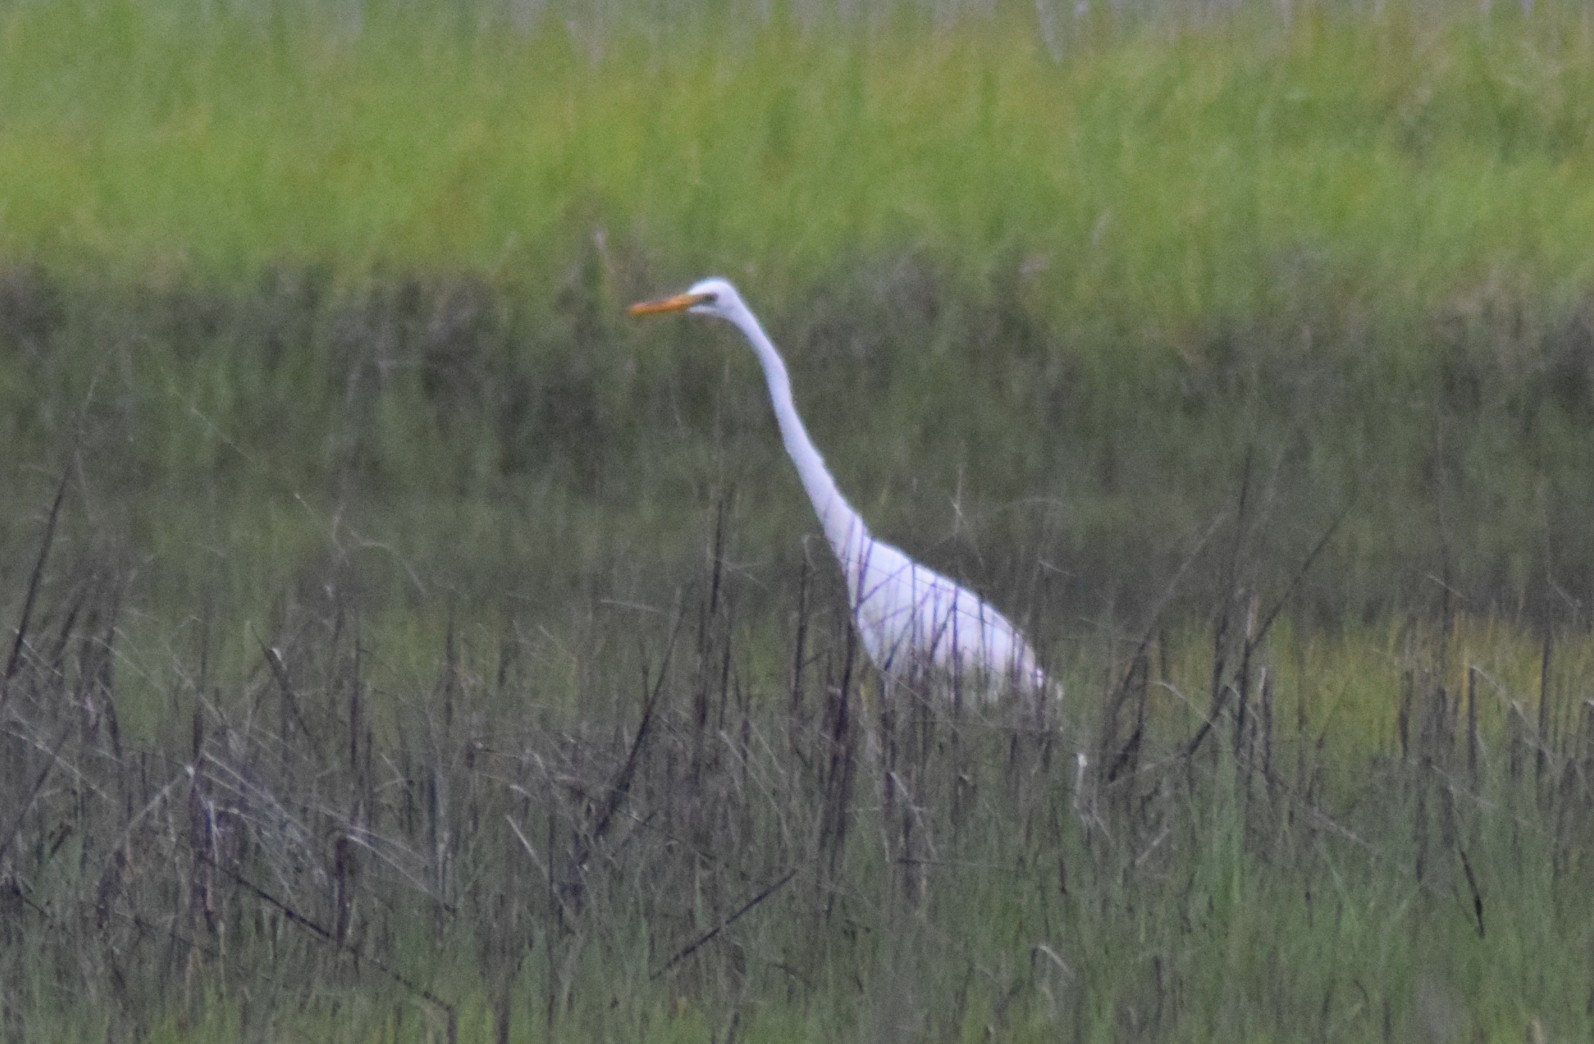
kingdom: Animalia
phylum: Chordata
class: Aves
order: Pelecaniformes
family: Ardeidae
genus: Ardea
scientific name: Ardea alba
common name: Great egret
